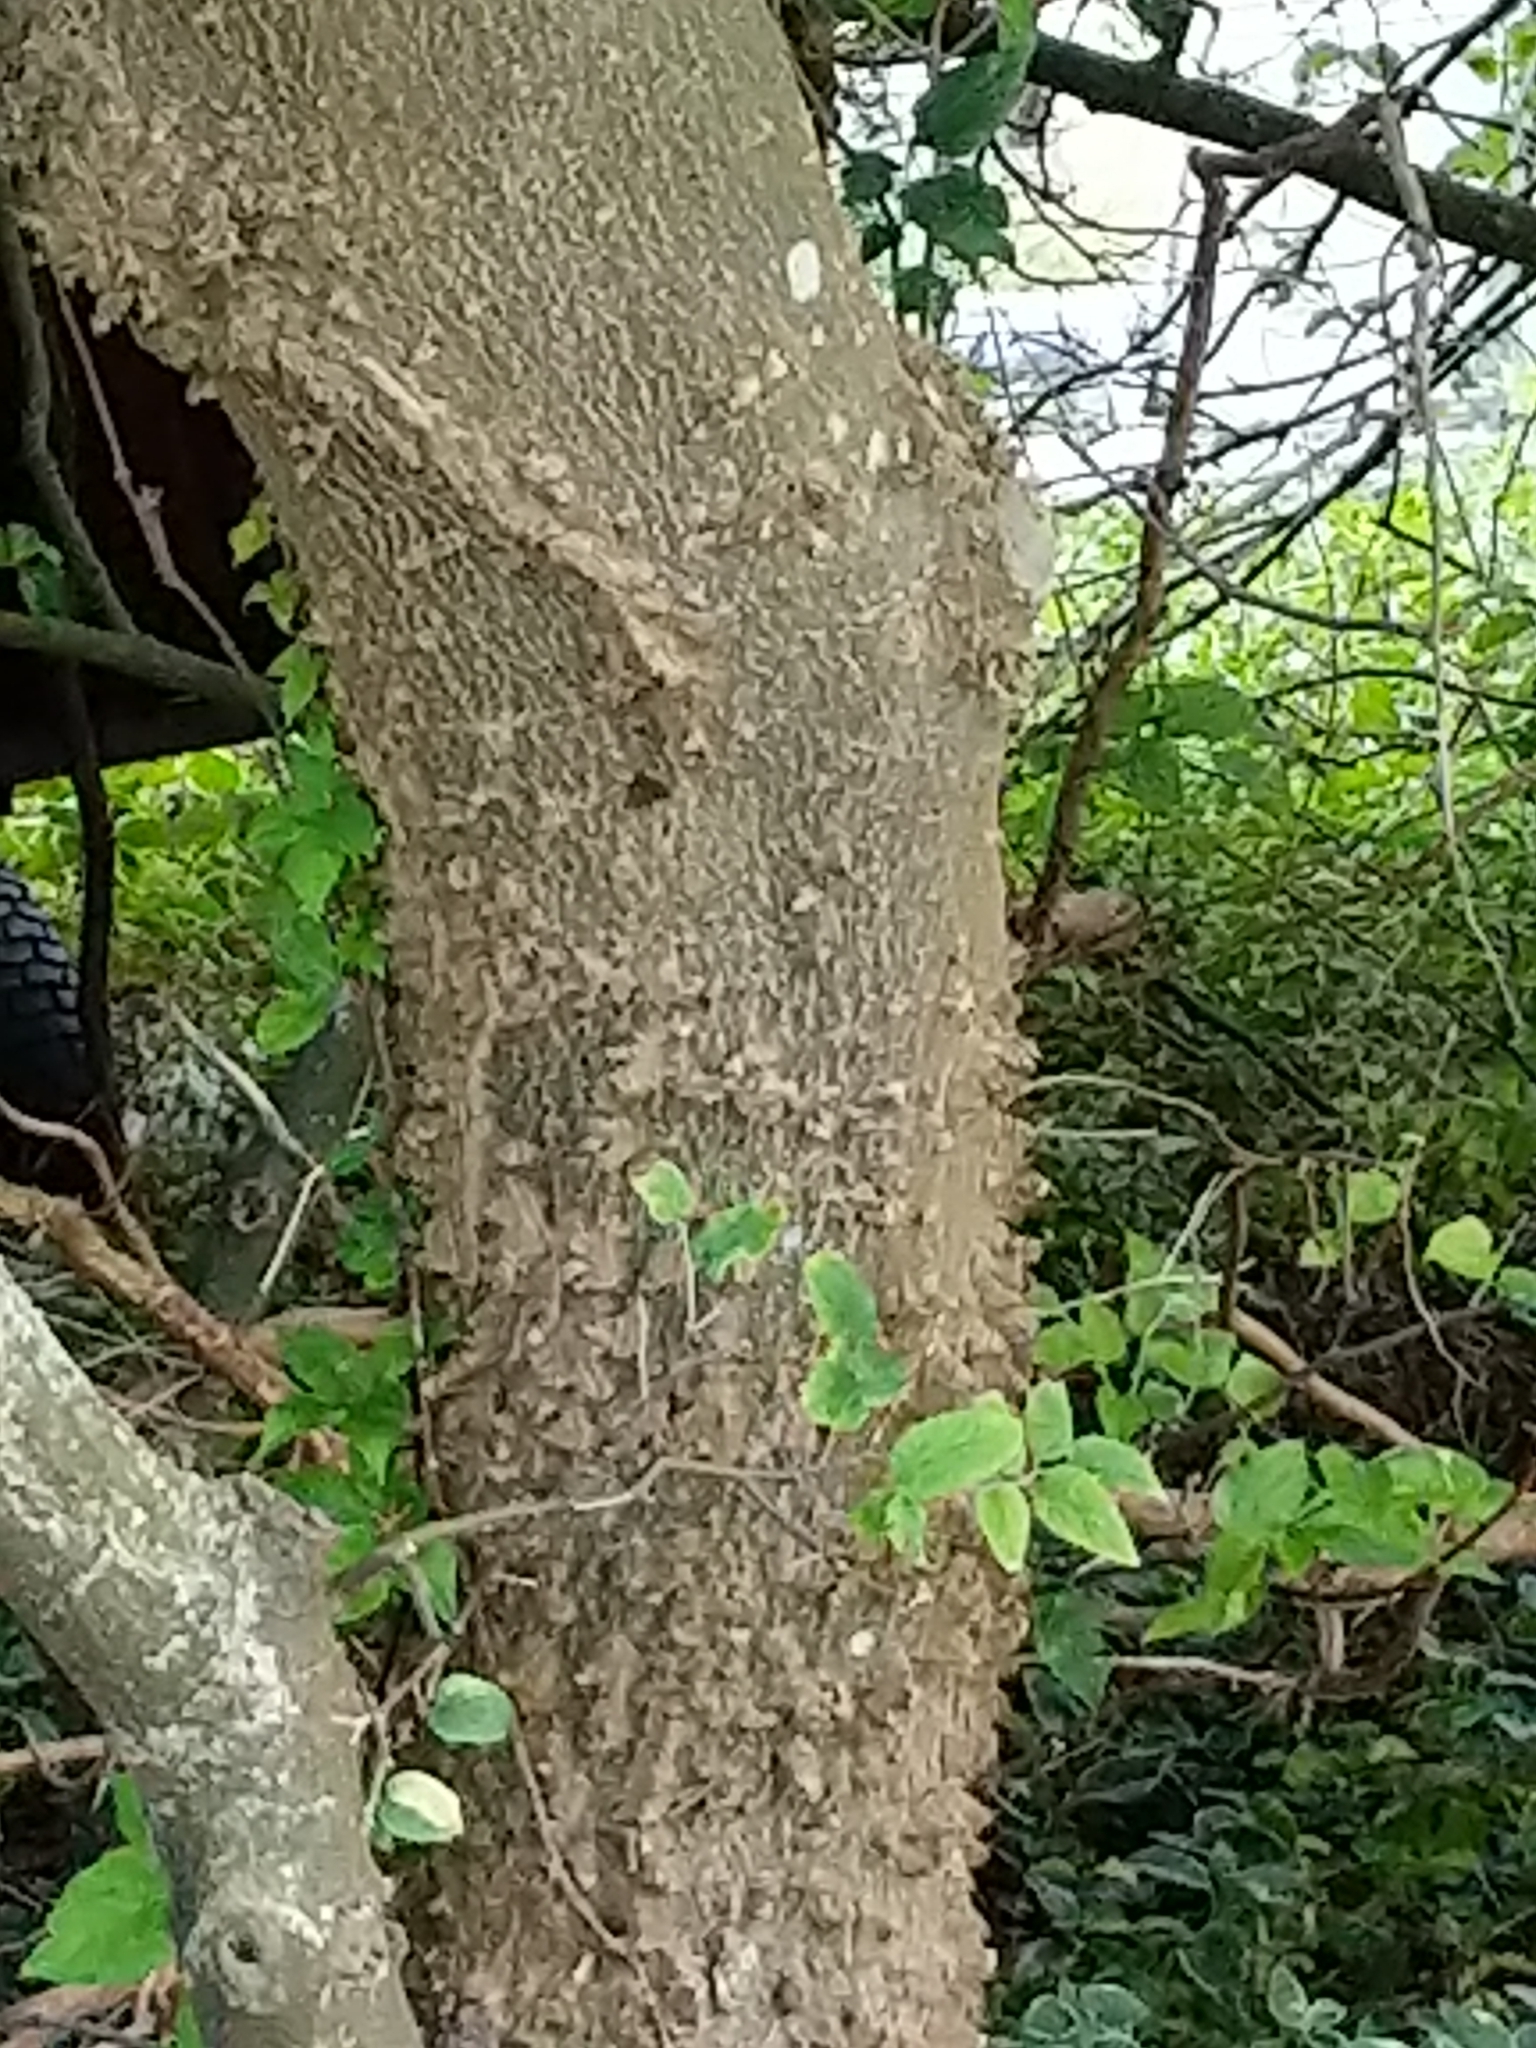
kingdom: Plantae
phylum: Tracheophyta
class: Magnoliopsida
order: Rosales
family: Cannabaceae
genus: Celtis
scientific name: Celtis occidentalis
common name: Common hackberry
